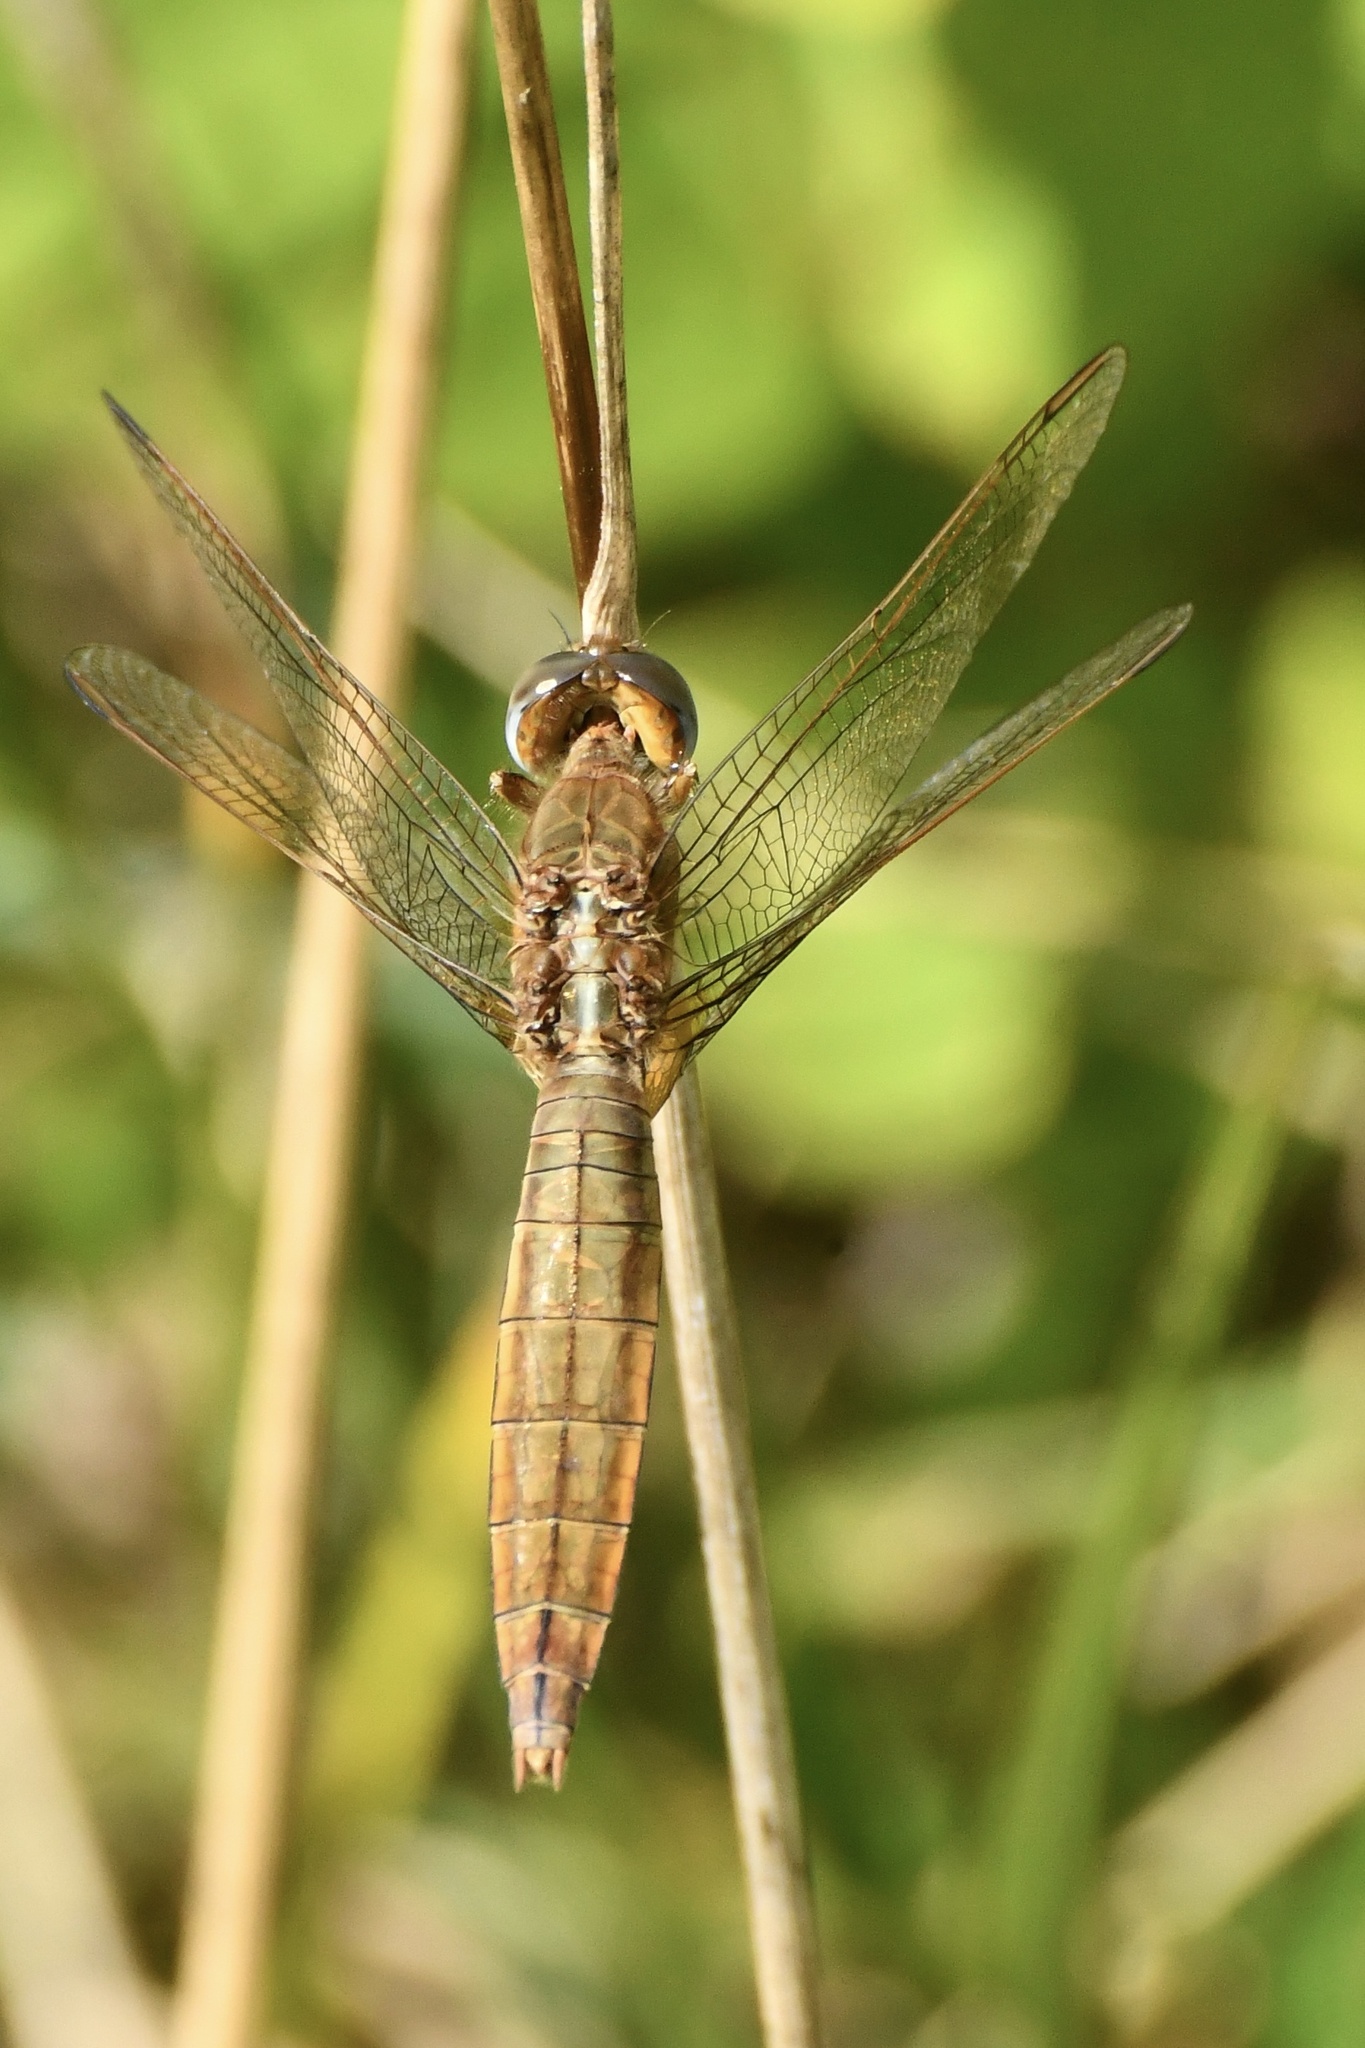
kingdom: Animalia
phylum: Arthropoda
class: Insecta
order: Odonata
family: Libellulidae
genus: Crocothemis
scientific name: Crocothemis erythraea
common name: Scarlet dragonfly
